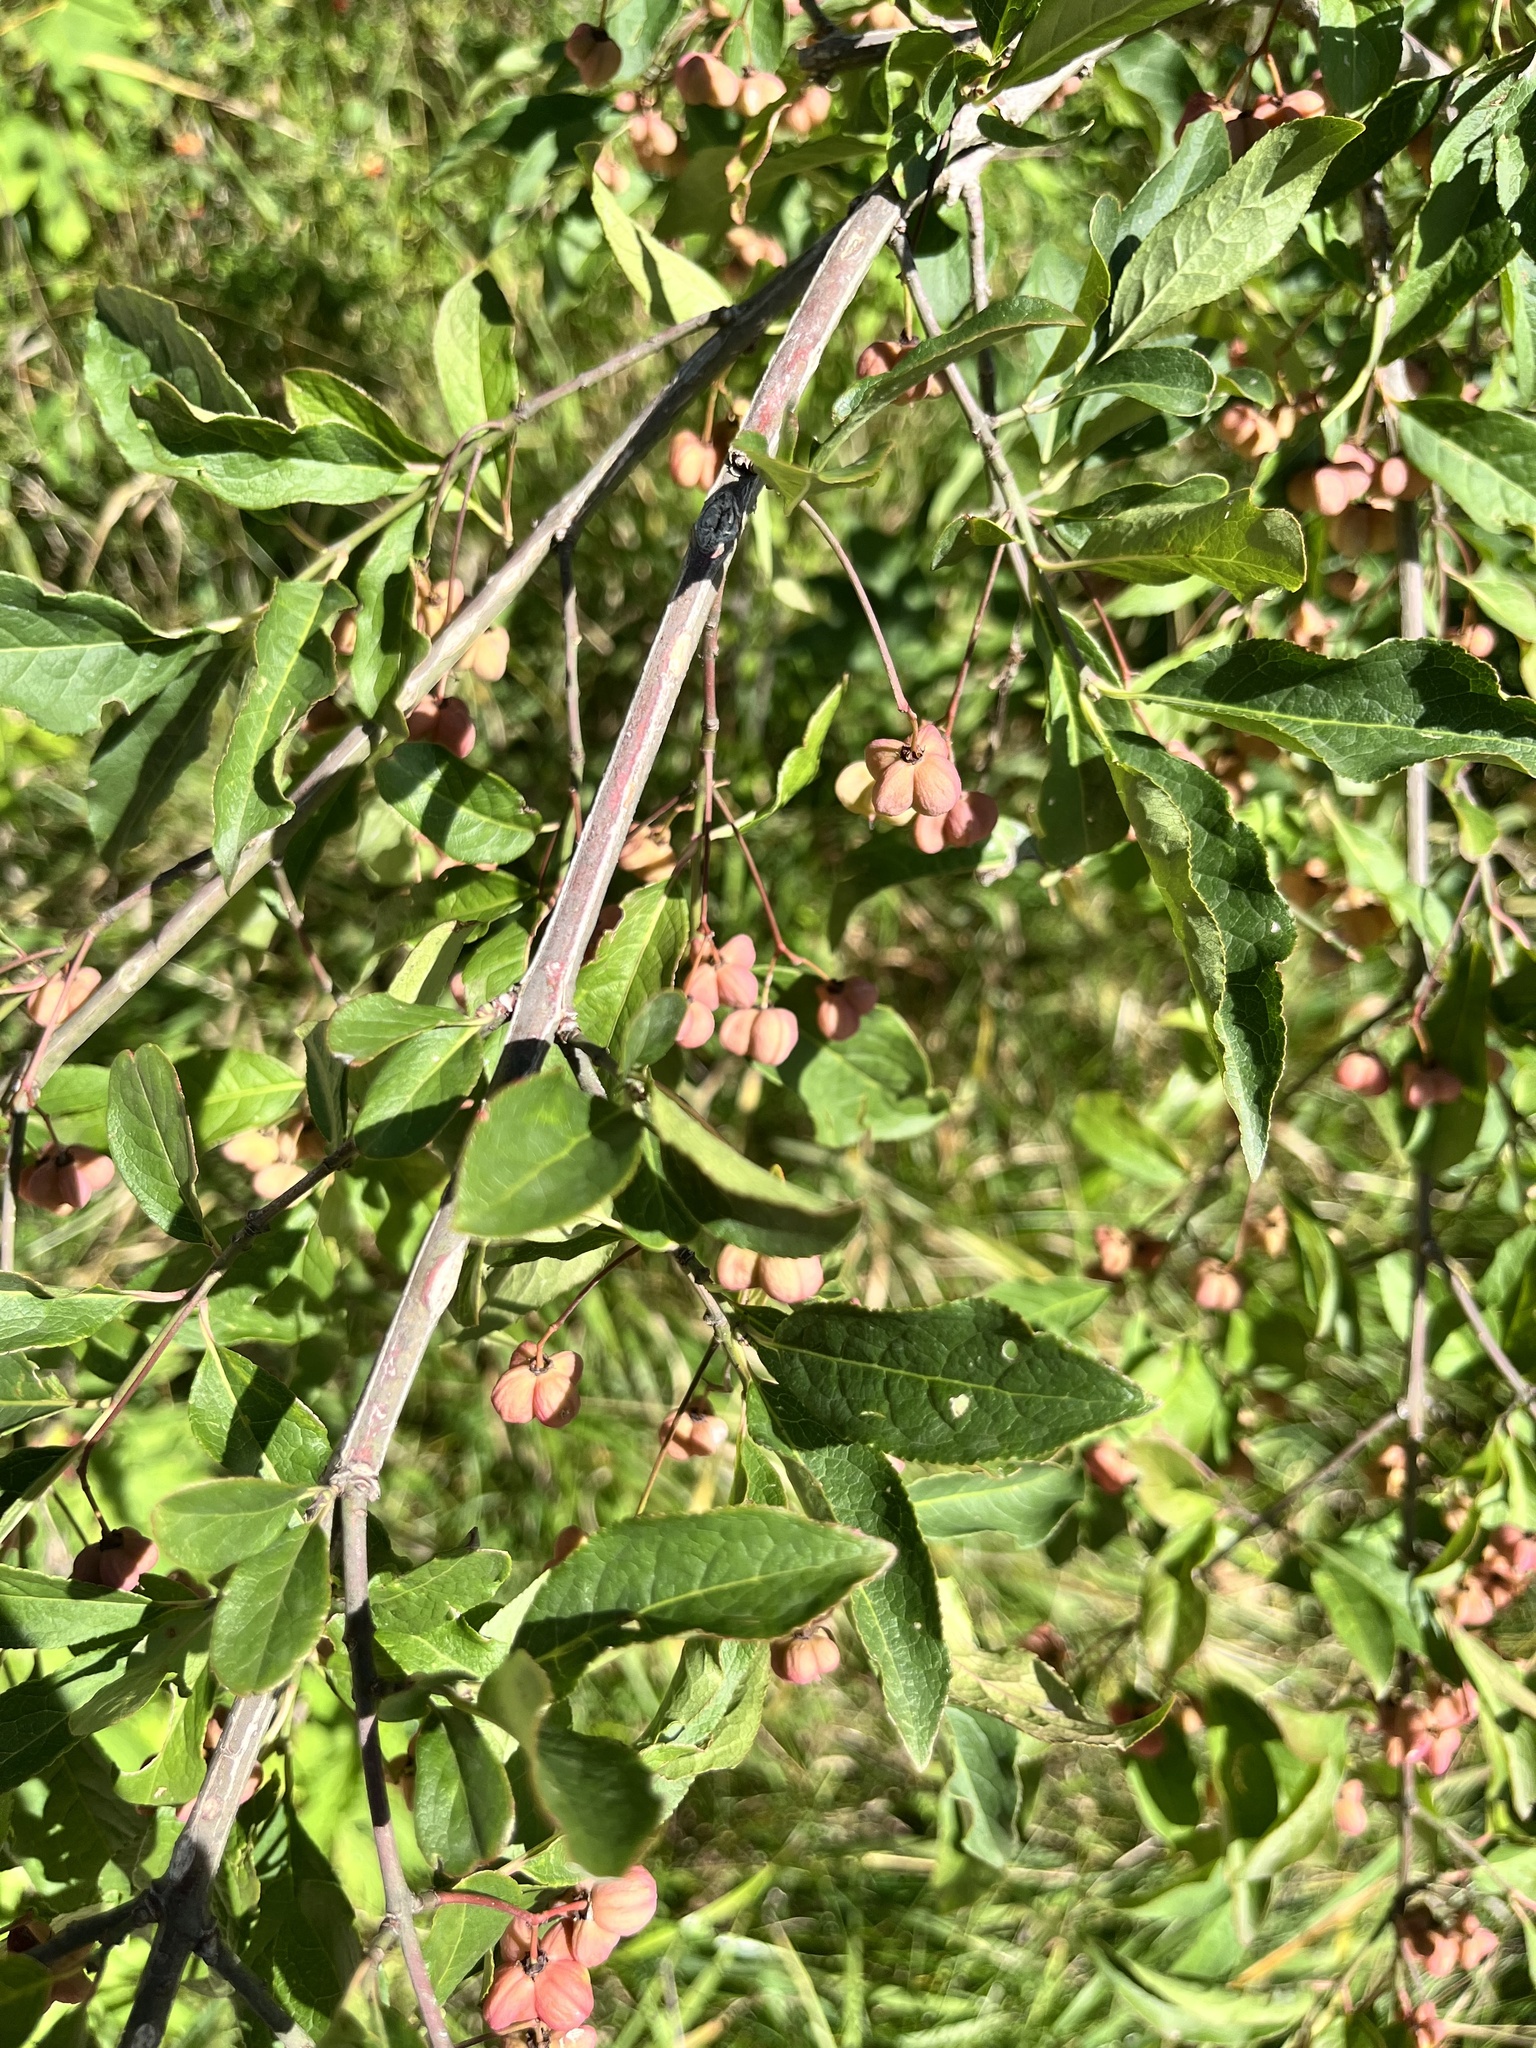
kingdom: Plantae
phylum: Tracheophyta
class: Magnoliopsida
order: Celastrales
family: Celastraceae
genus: Euonymus
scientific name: Euonymus europaeus
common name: Spindle
